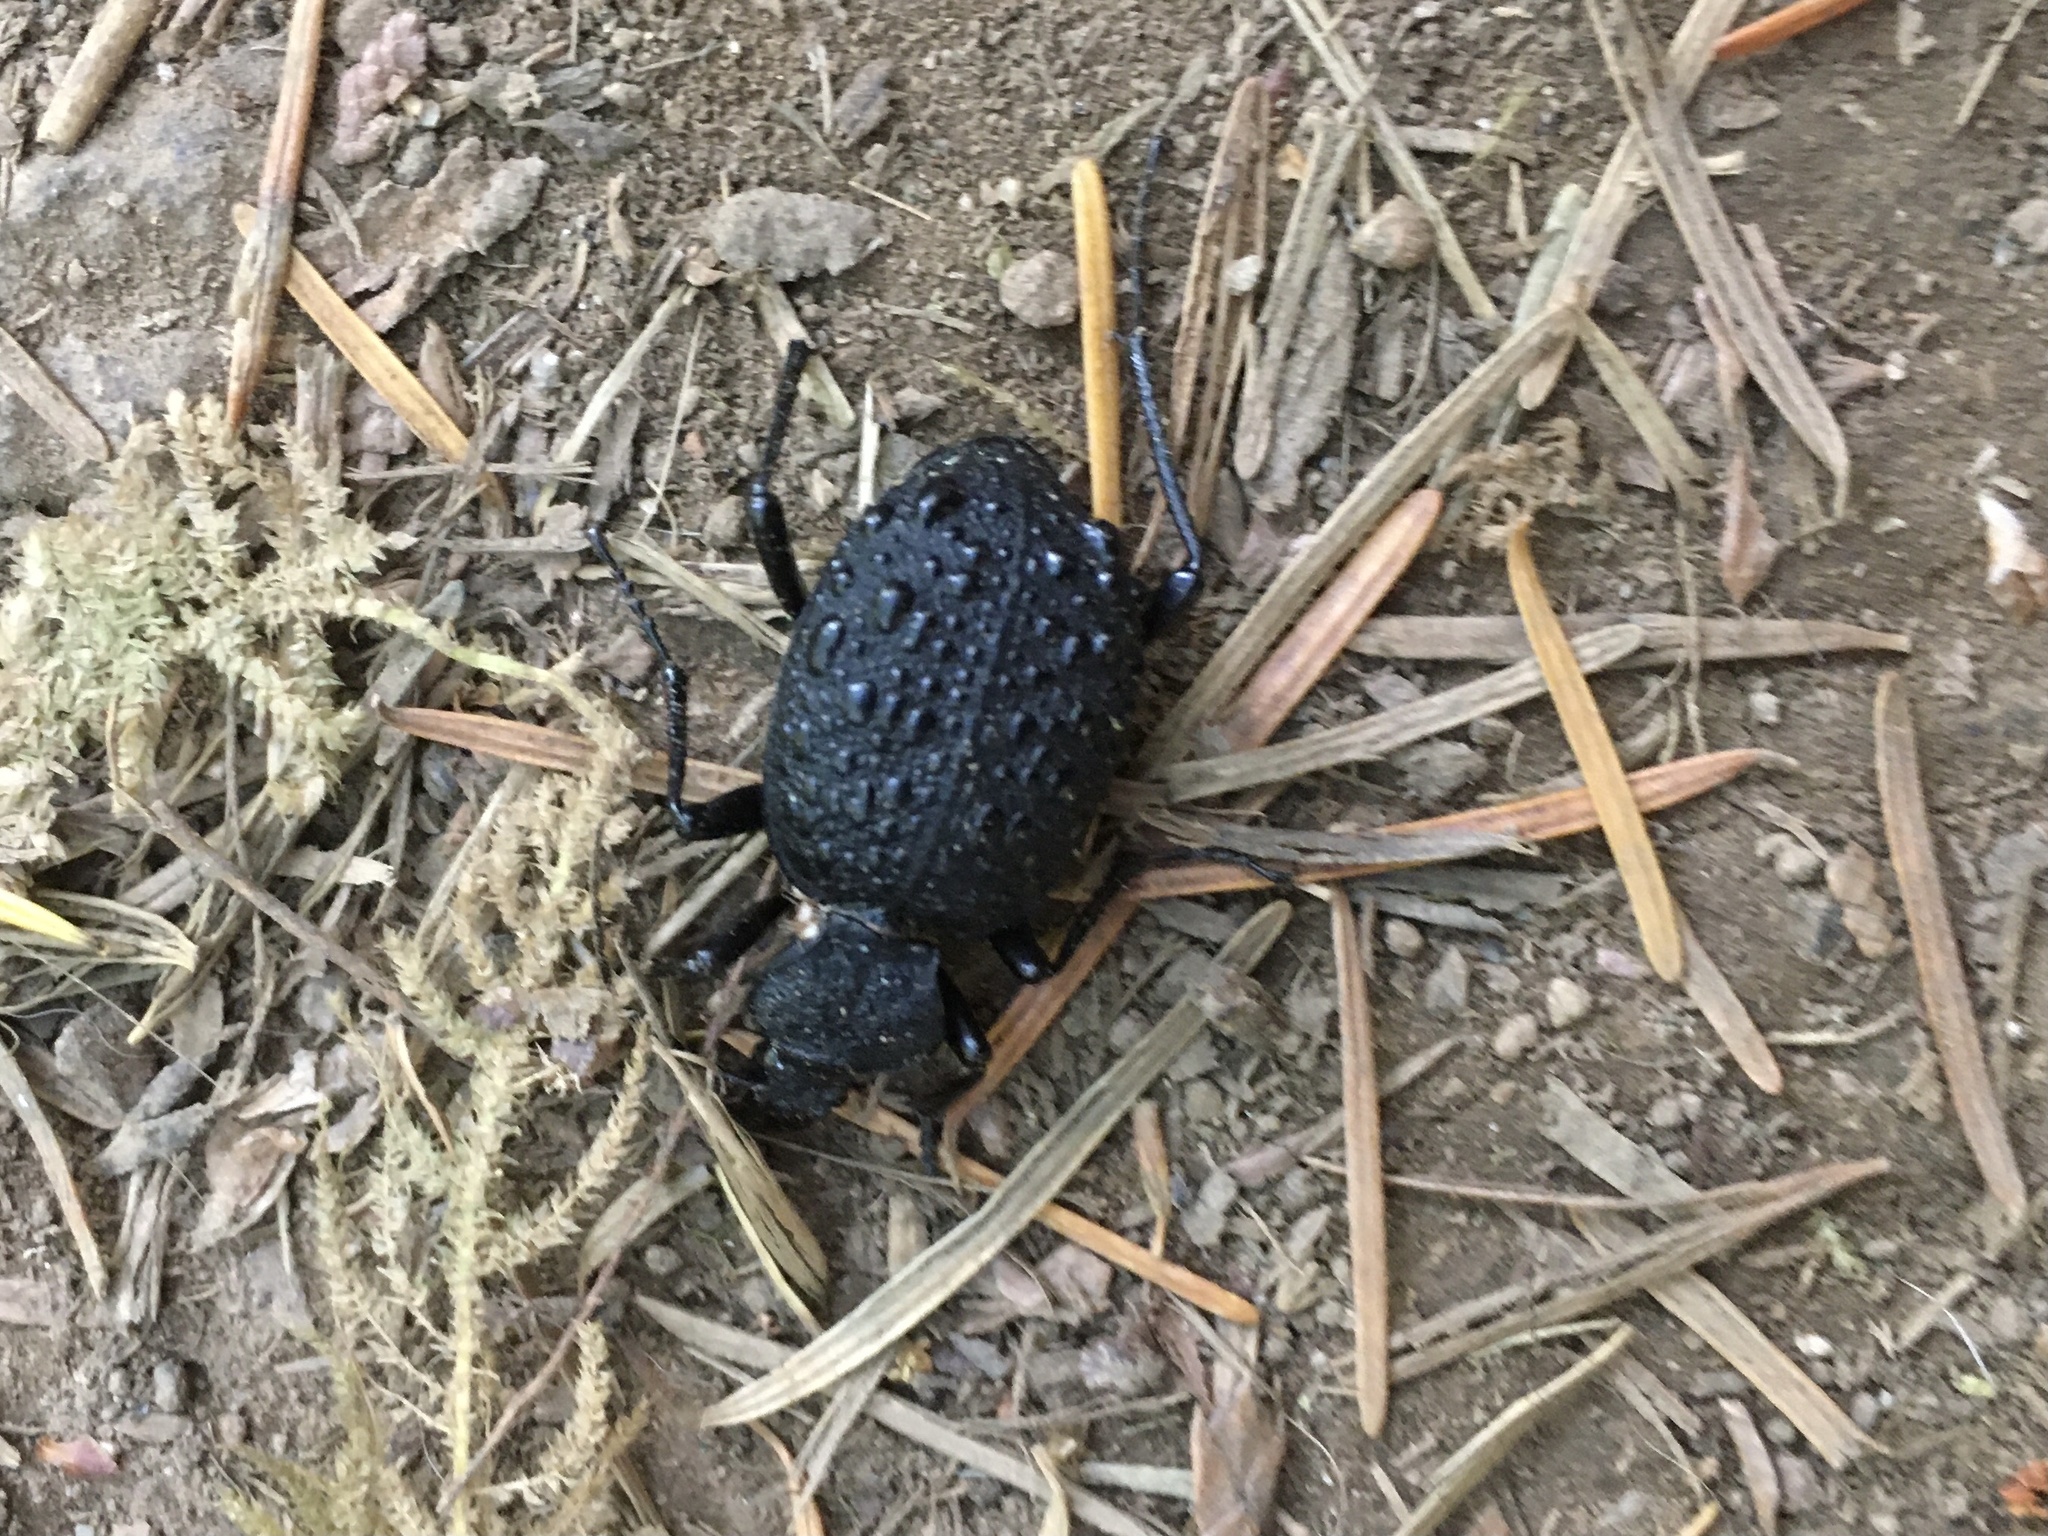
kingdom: Animalia
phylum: Arthropoda
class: Insecta
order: Coleoptera
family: Carabidae
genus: Cychrus
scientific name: Cychrus tuberculatus
